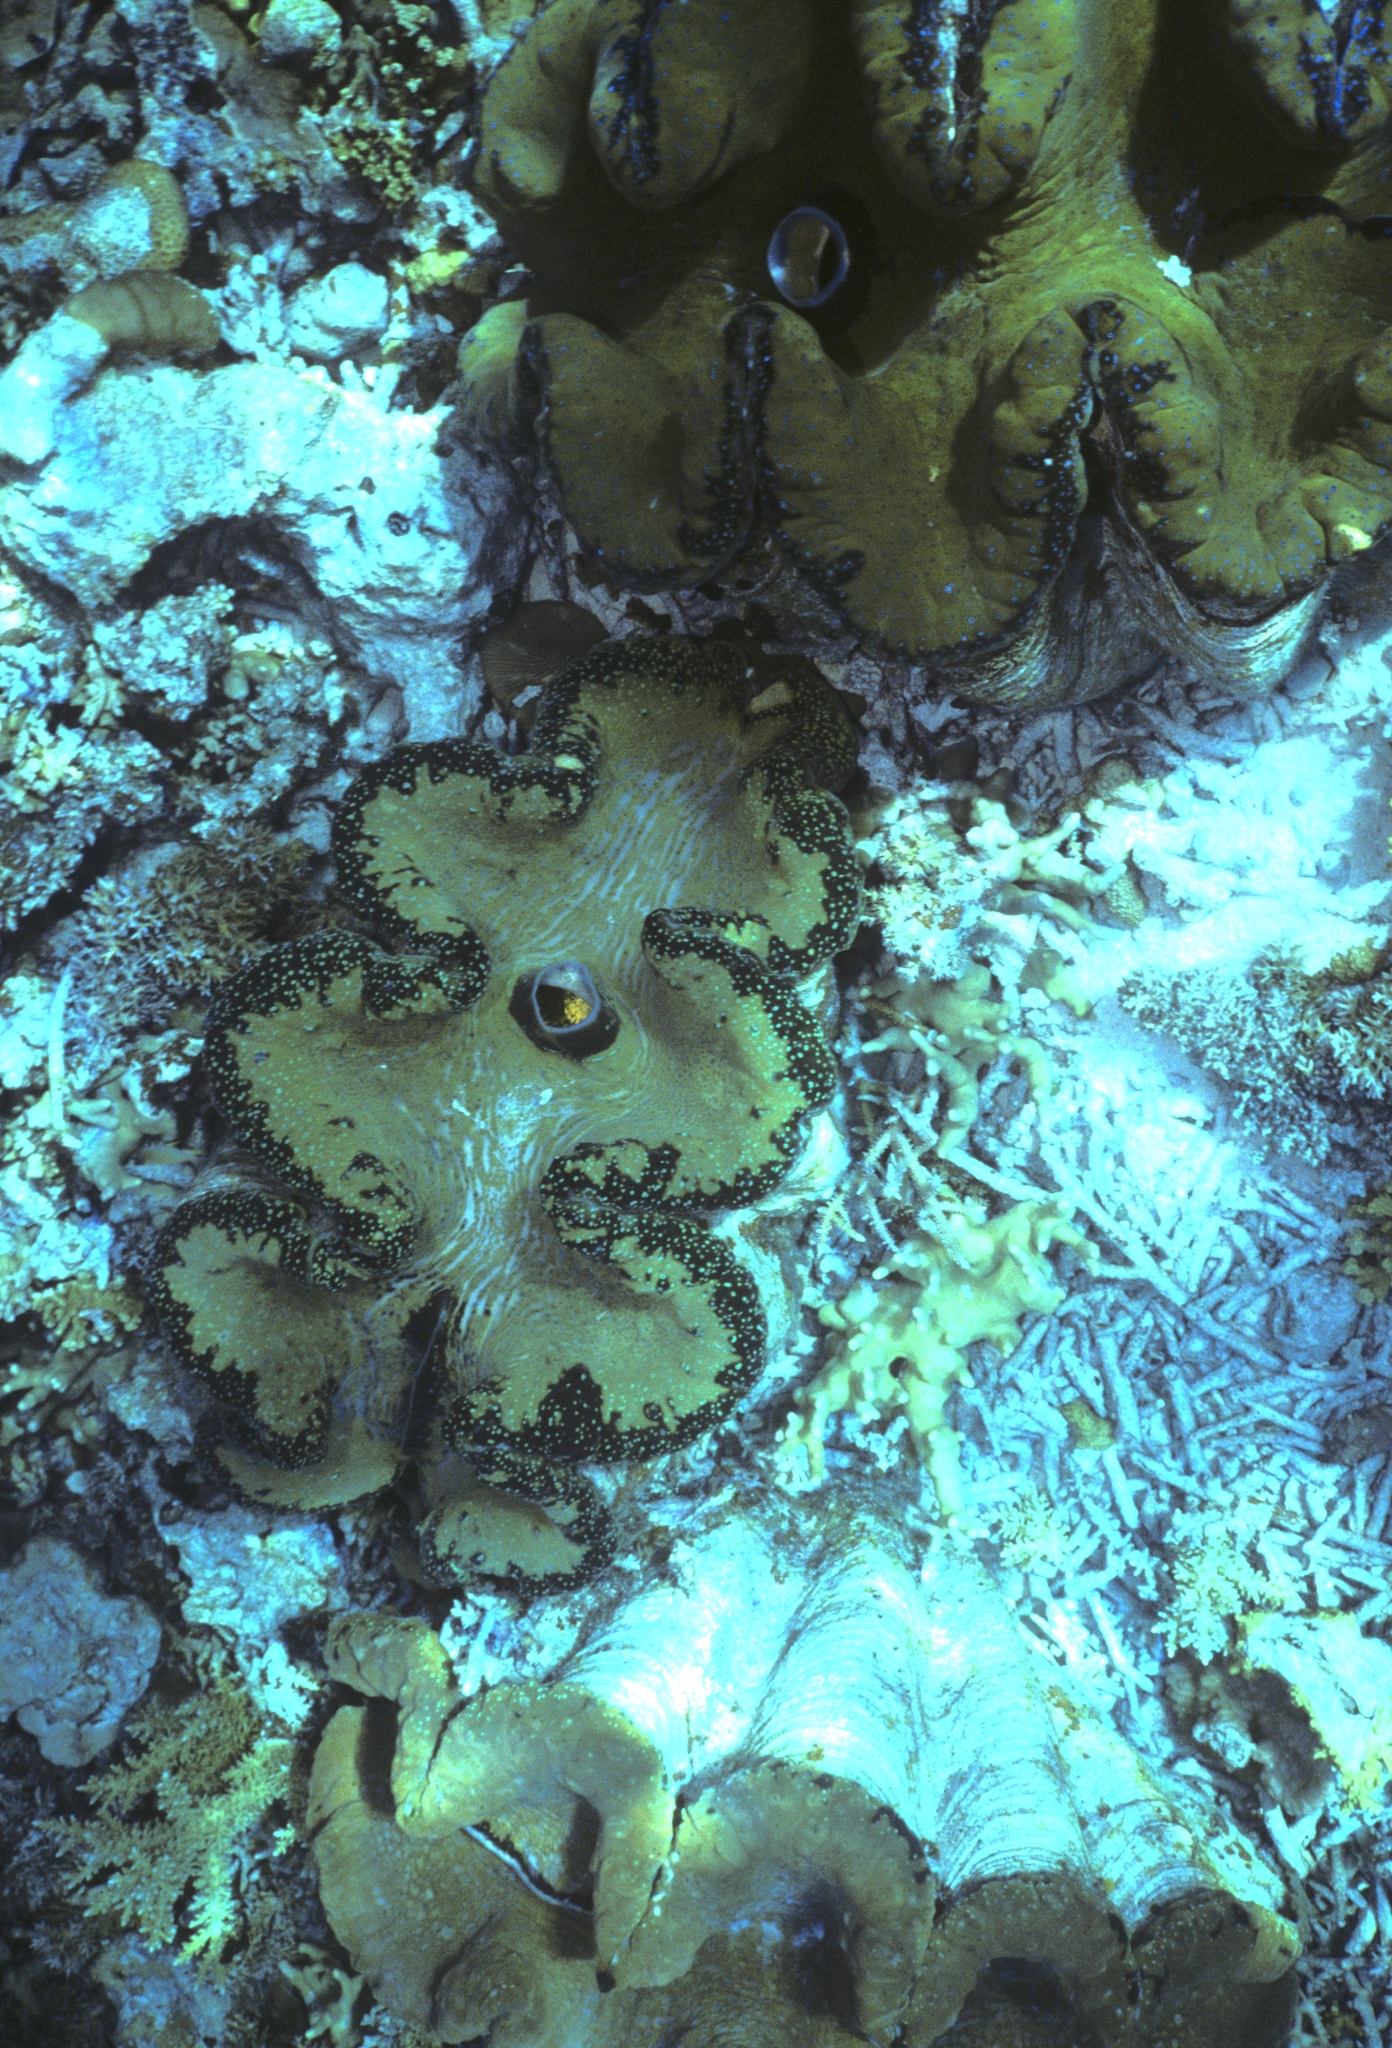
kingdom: Animalia
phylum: Mollusca
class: Bivalvia
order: Cardiida
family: Cardiidae
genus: Tridacna
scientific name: Tridacna gigas
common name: Giant clam
